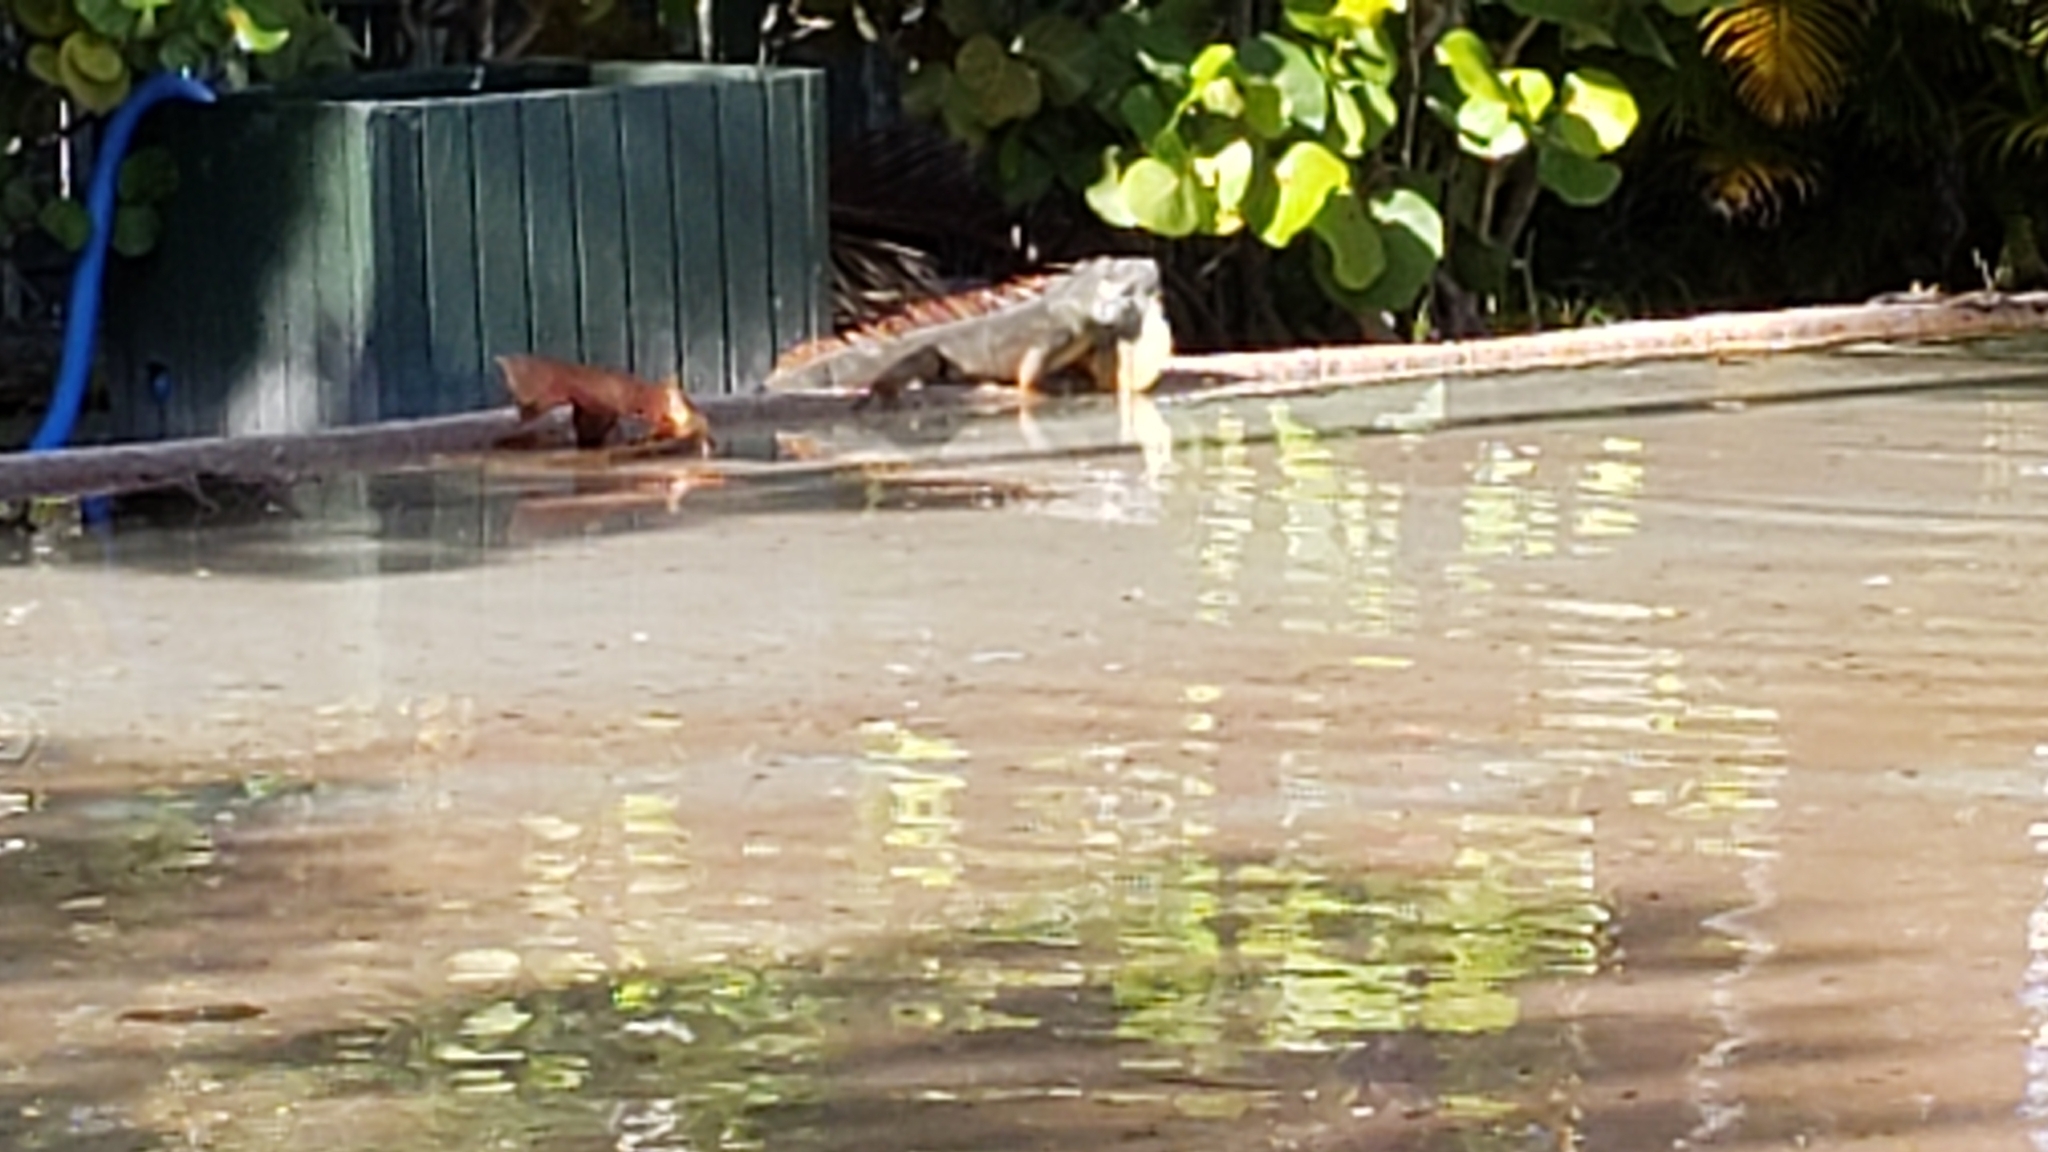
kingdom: Animalia
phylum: Chordata
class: Squamata
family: Iguanidae
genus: Iguana
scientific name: Iguana iguana
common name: Green iguana
